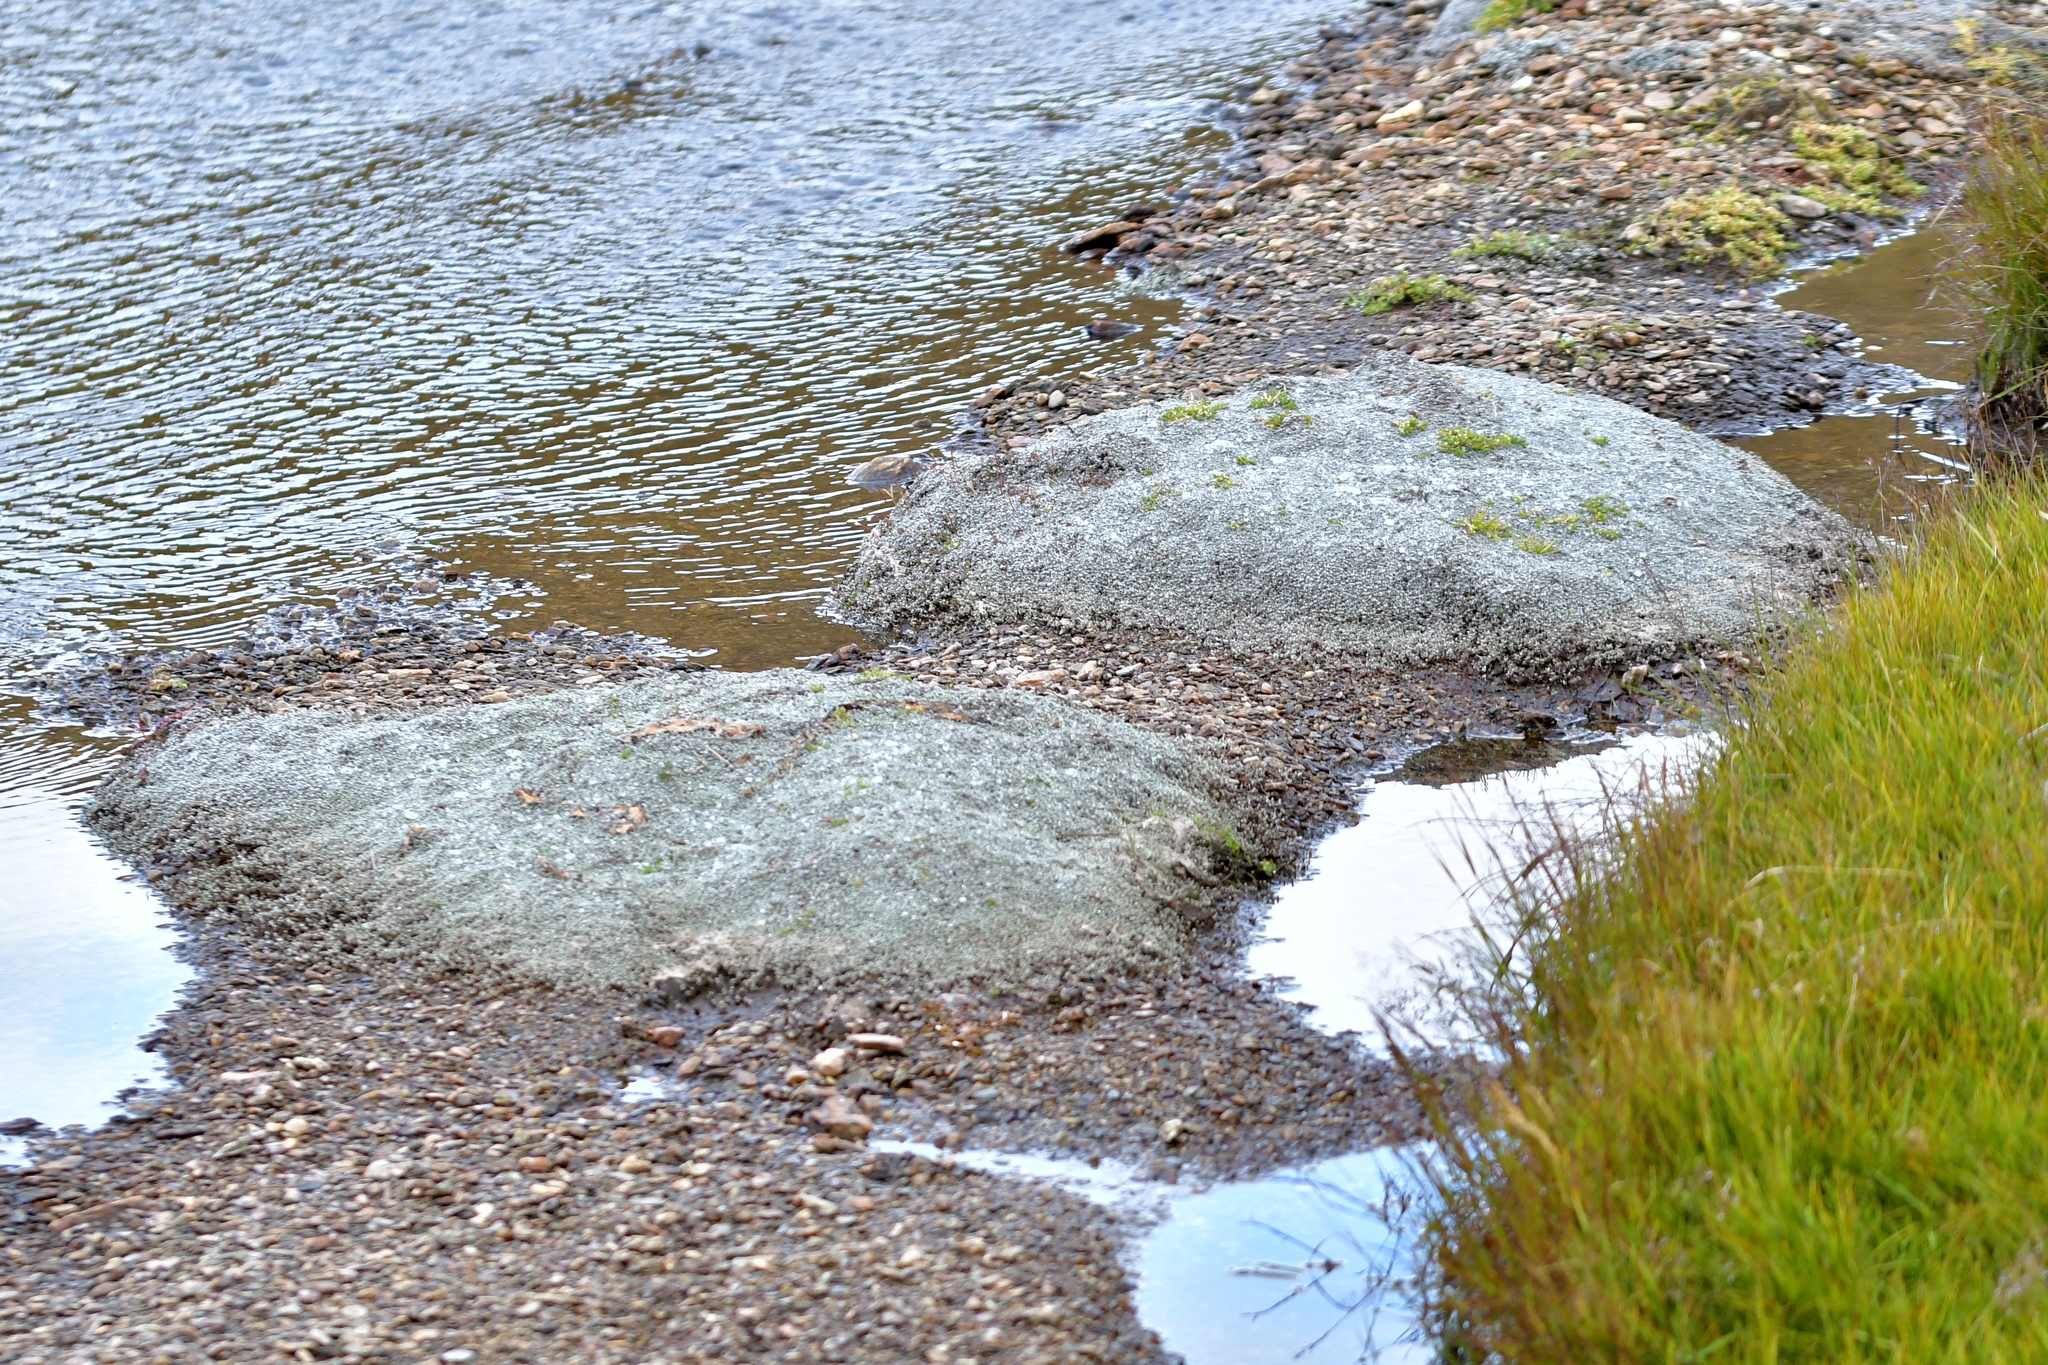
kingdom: Plantae
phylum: Tracheophyta
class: Magnoliopsida
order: Asterales
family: Asteraceae
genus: Raoulia
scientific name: Raoulia tenuicaulis
